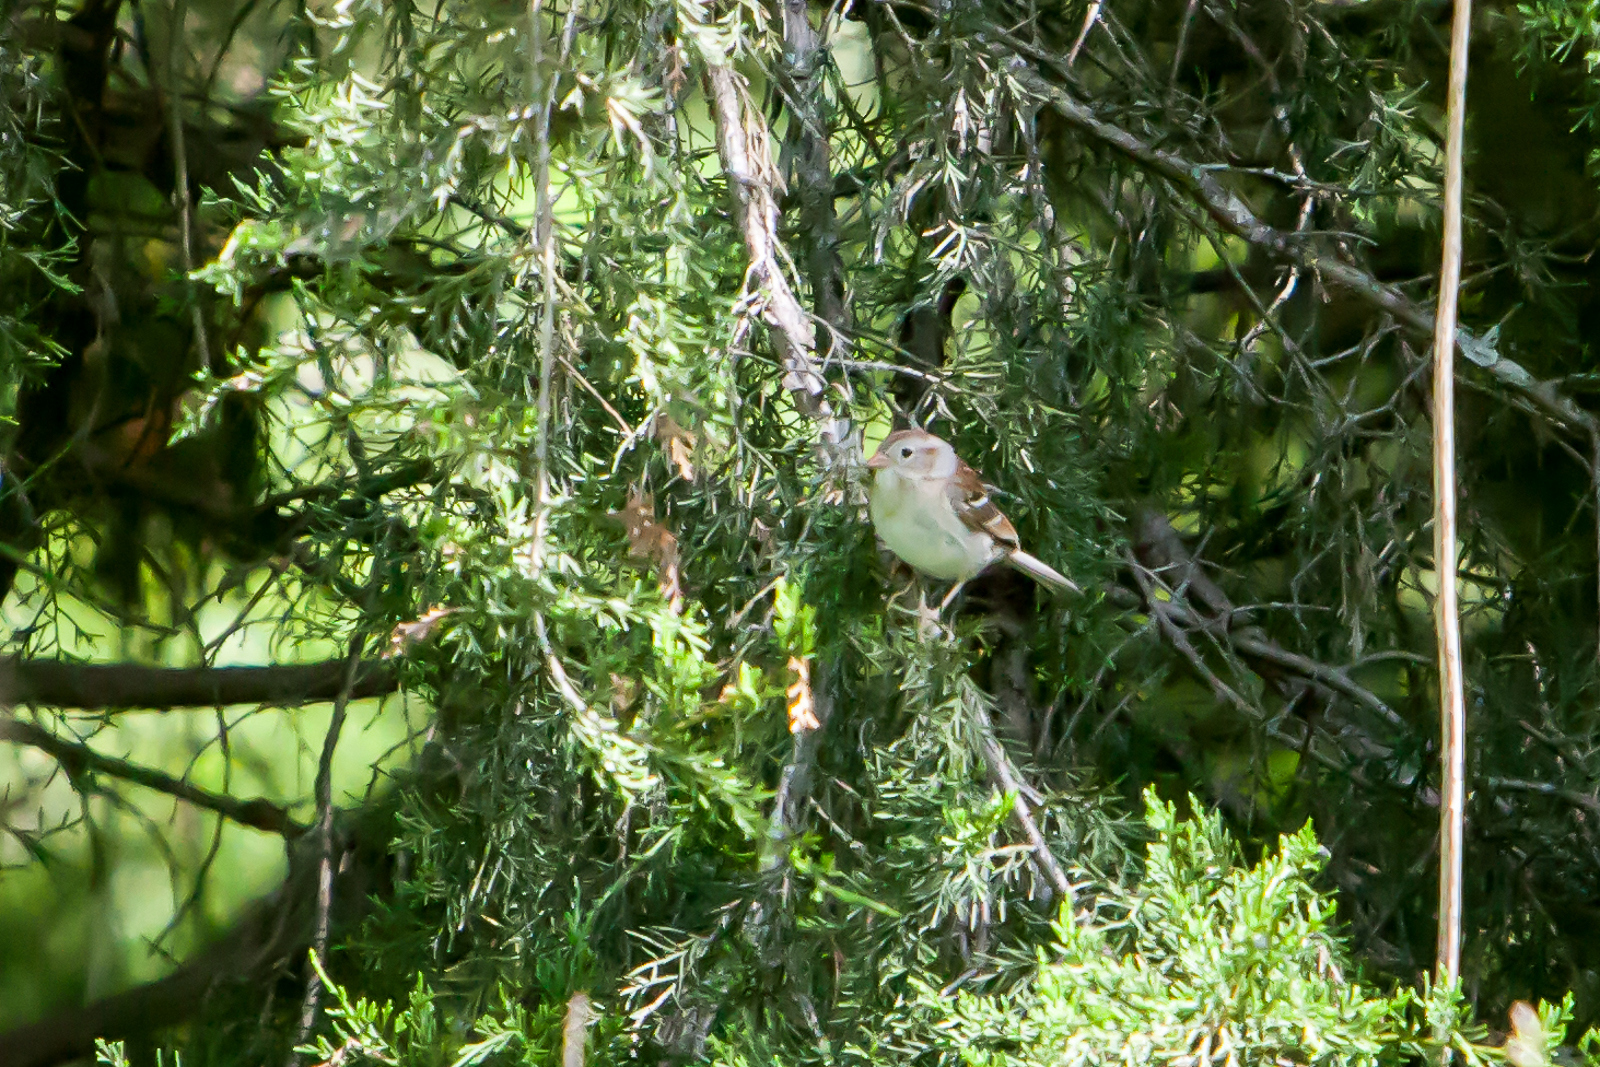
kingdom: Animalia
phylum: Chordata
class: Aves
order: Passeriformes
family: Passerellidae
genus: Spizella
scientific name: Spizella pusilla
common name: Field sparrow
